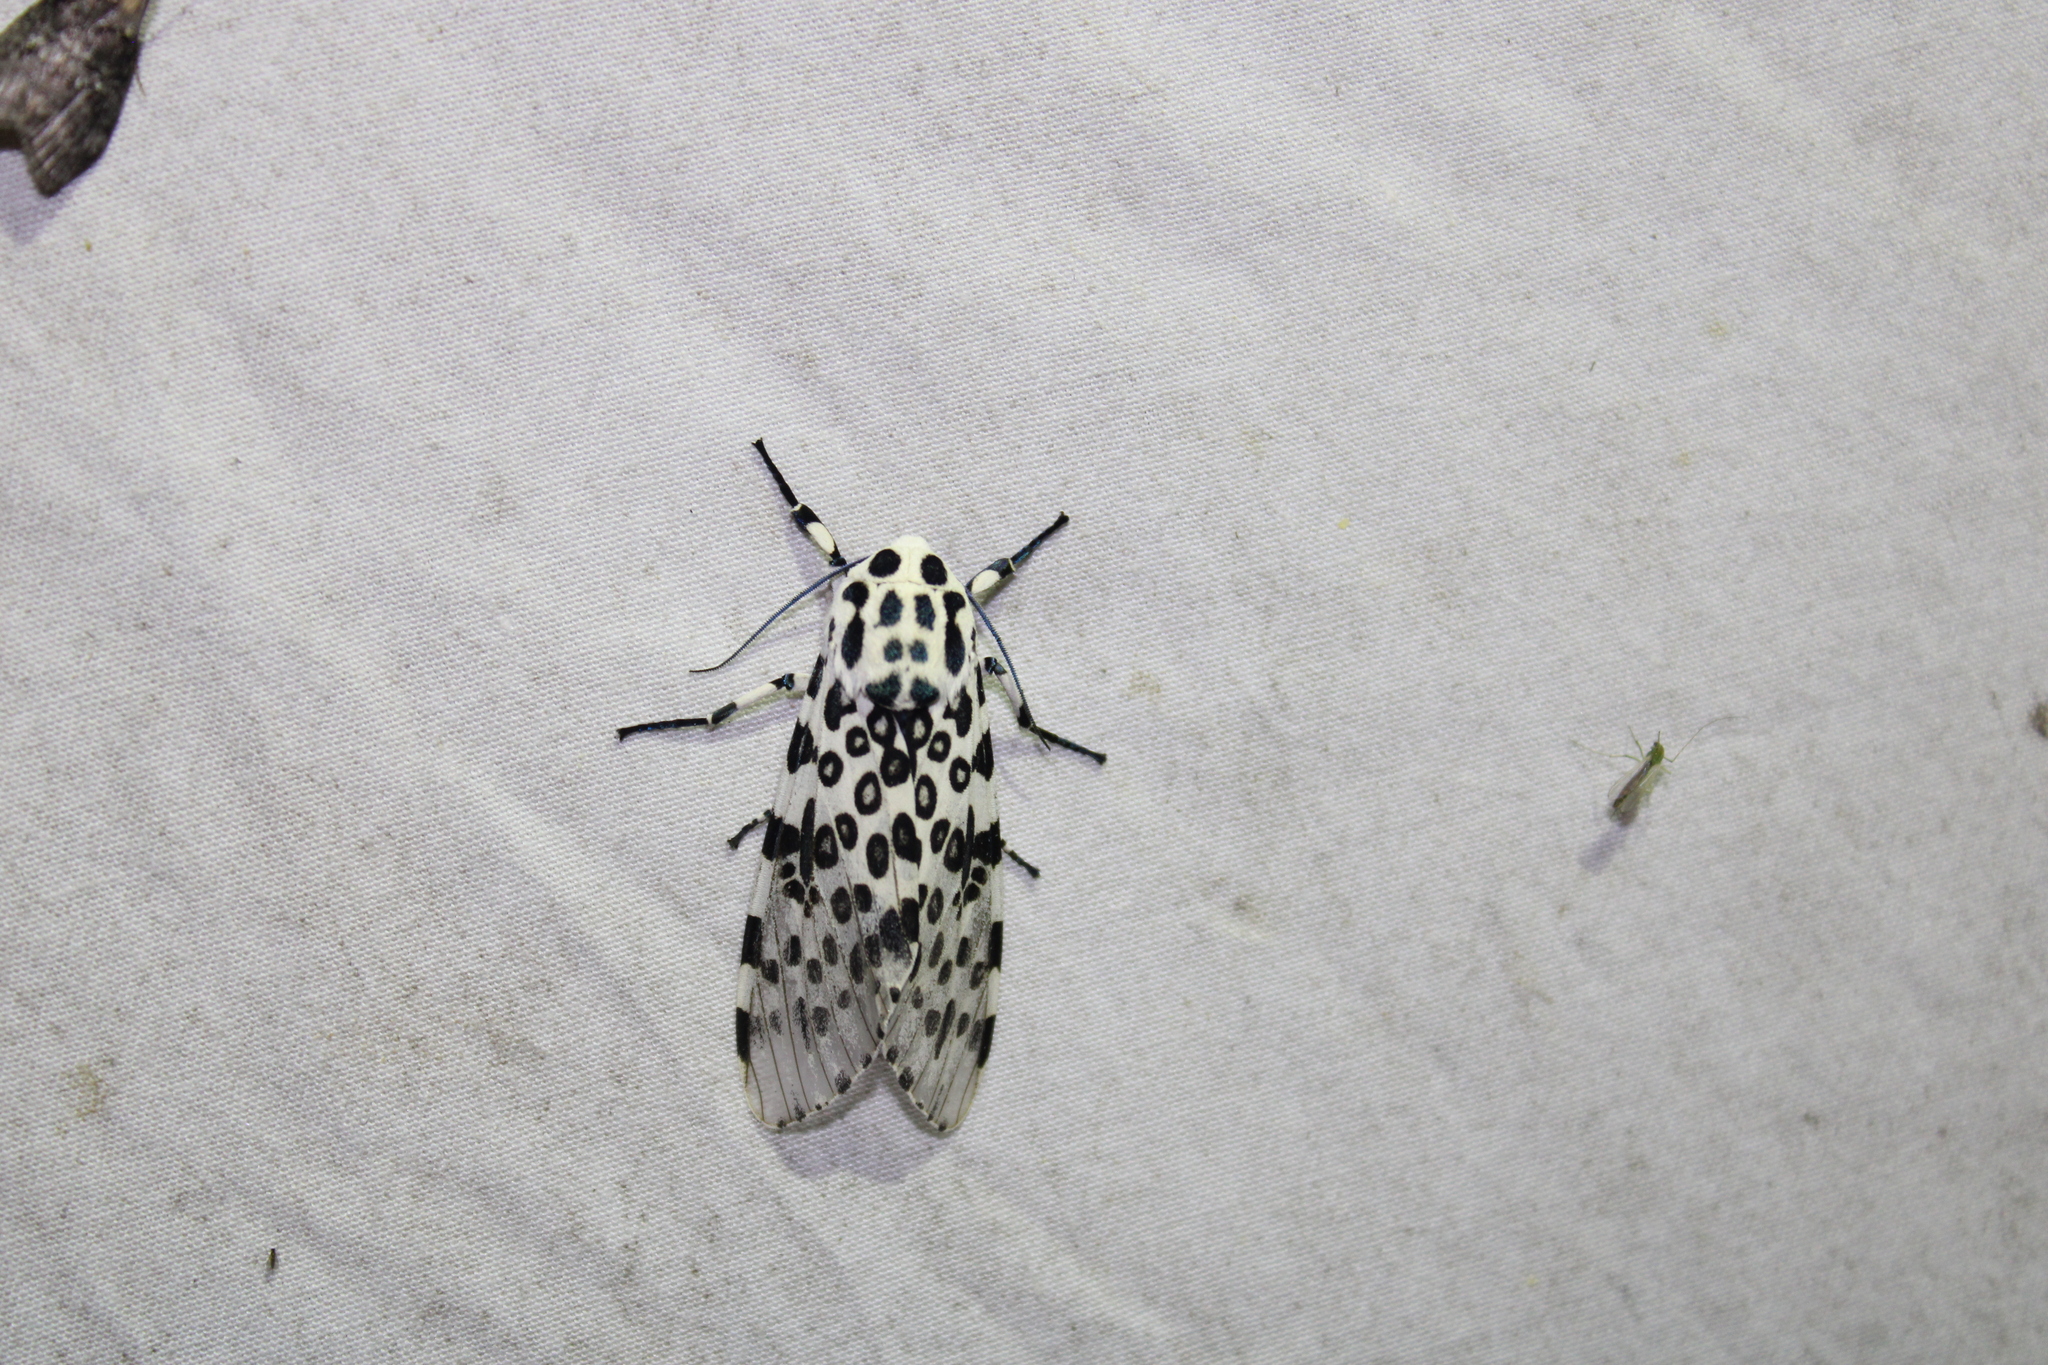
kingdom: Animalia
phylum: Arthropoda
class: Insecta
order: Lepidoptera
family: Erebidae
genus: Hypercompe
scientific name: Hypercompe scribonia
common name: Giant leopard moth
